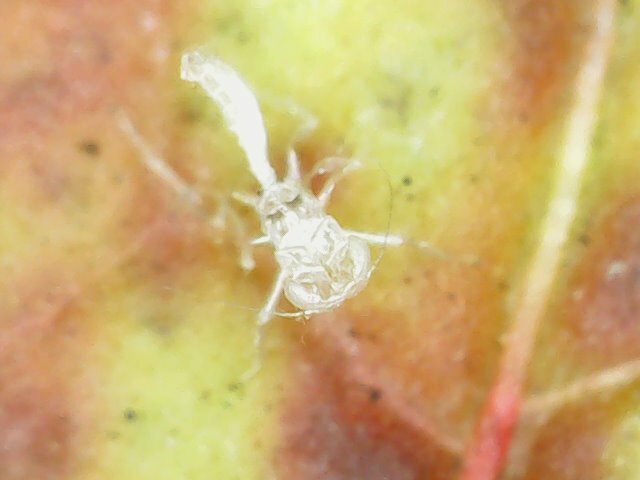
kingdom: Animalia
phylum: Arthropoda
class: Insecta
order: Hemiptera
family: Cicadellidae
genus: Amrasca
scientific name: Amrasca biguttula
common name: Indian cotton jassid
